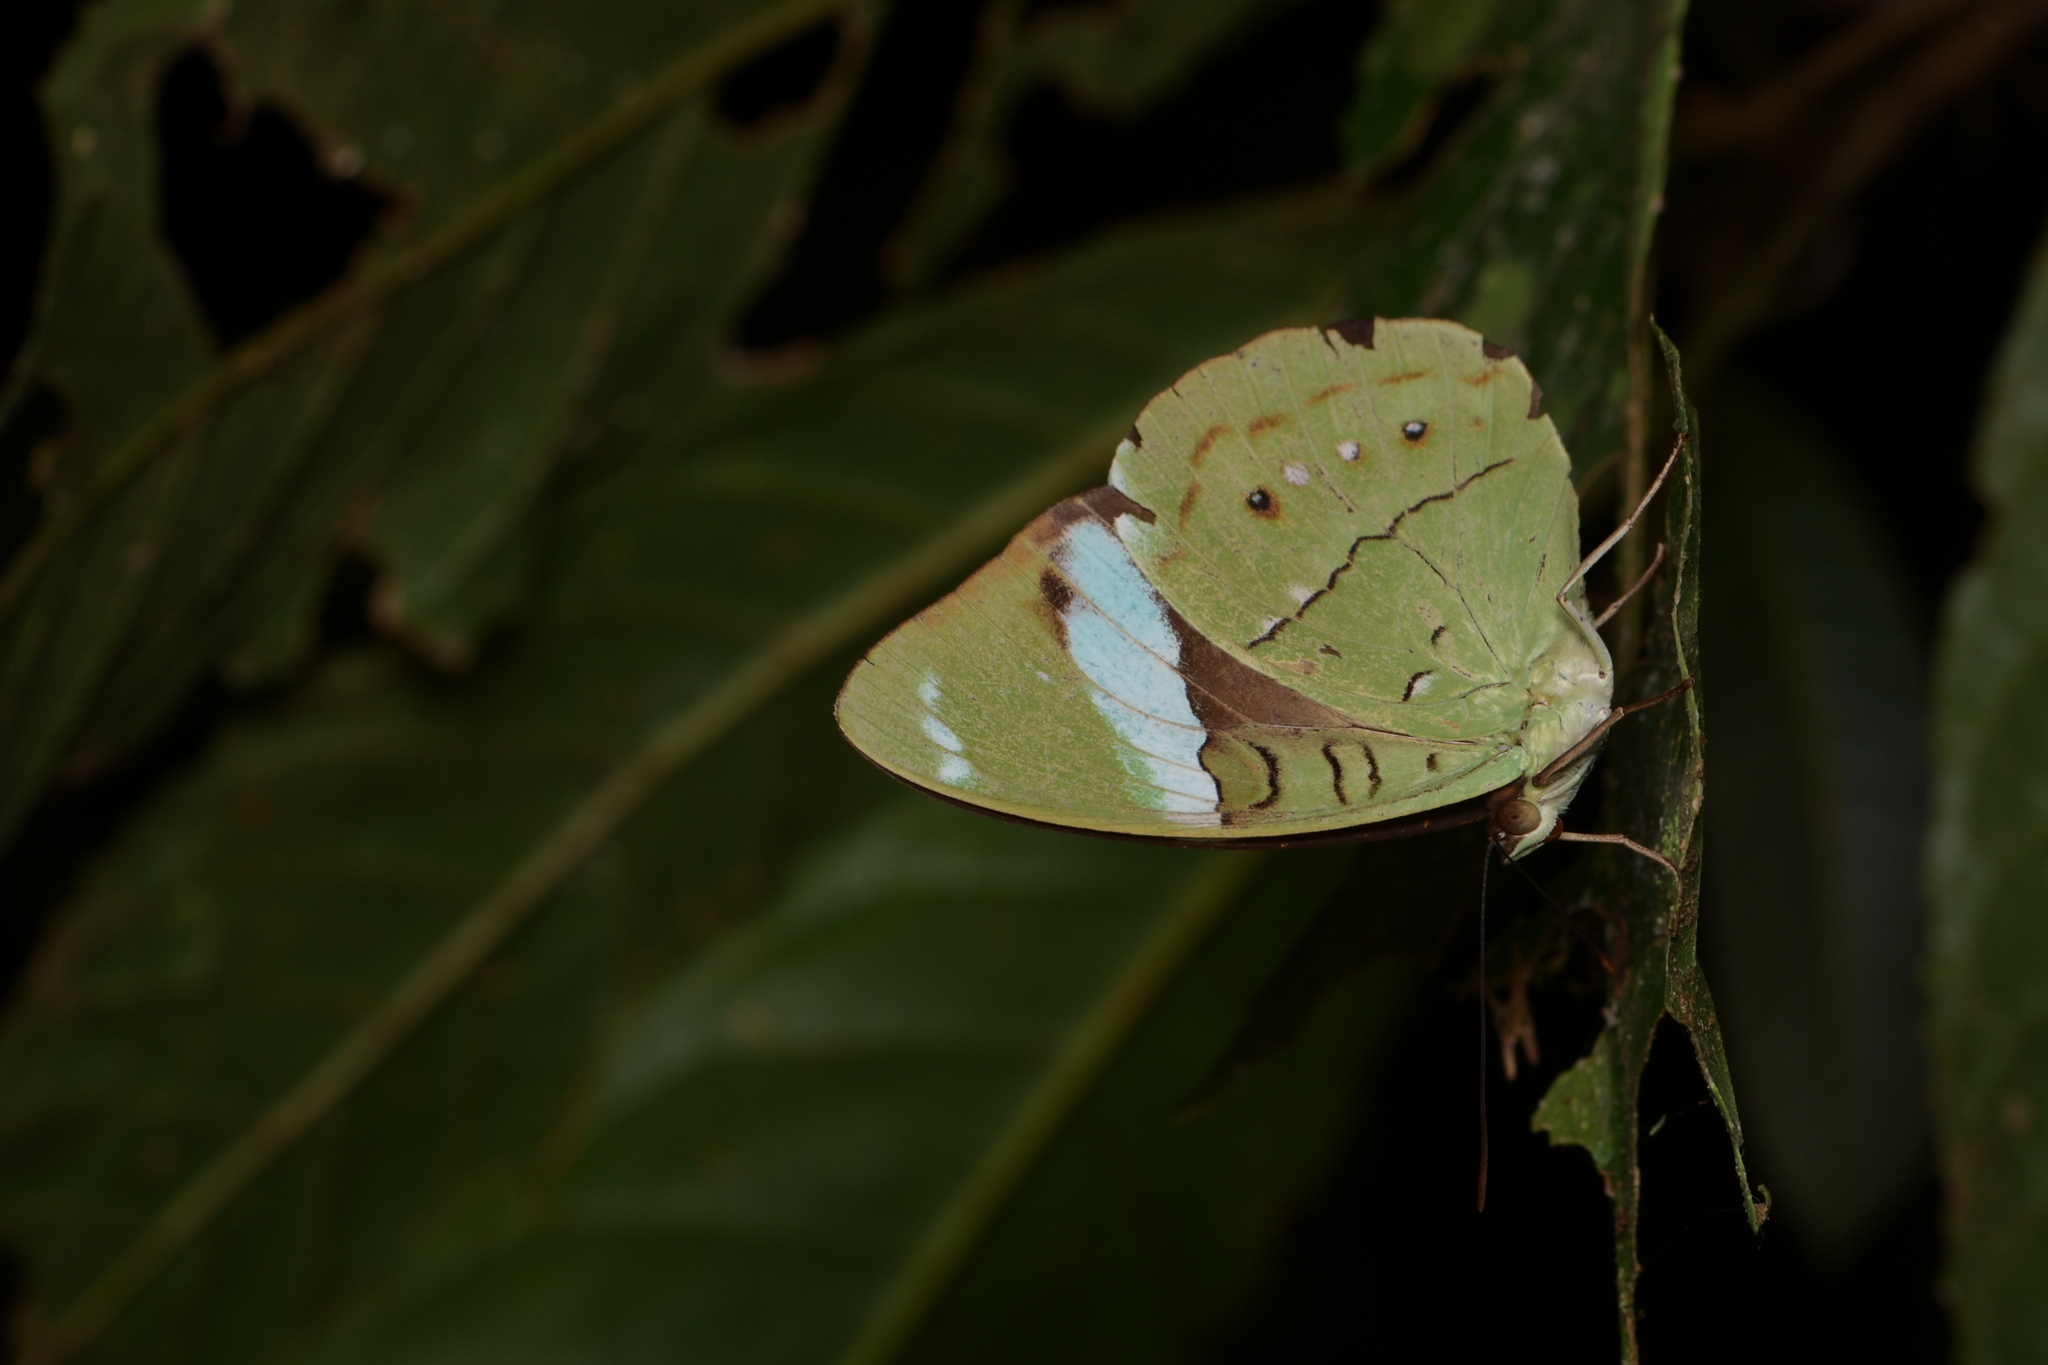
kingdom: Animalia
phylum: Arthropoda
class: Insecta
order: Lepidoptera
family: Nymphalidae
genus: Nessaea
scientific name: Nessaea aglaura
